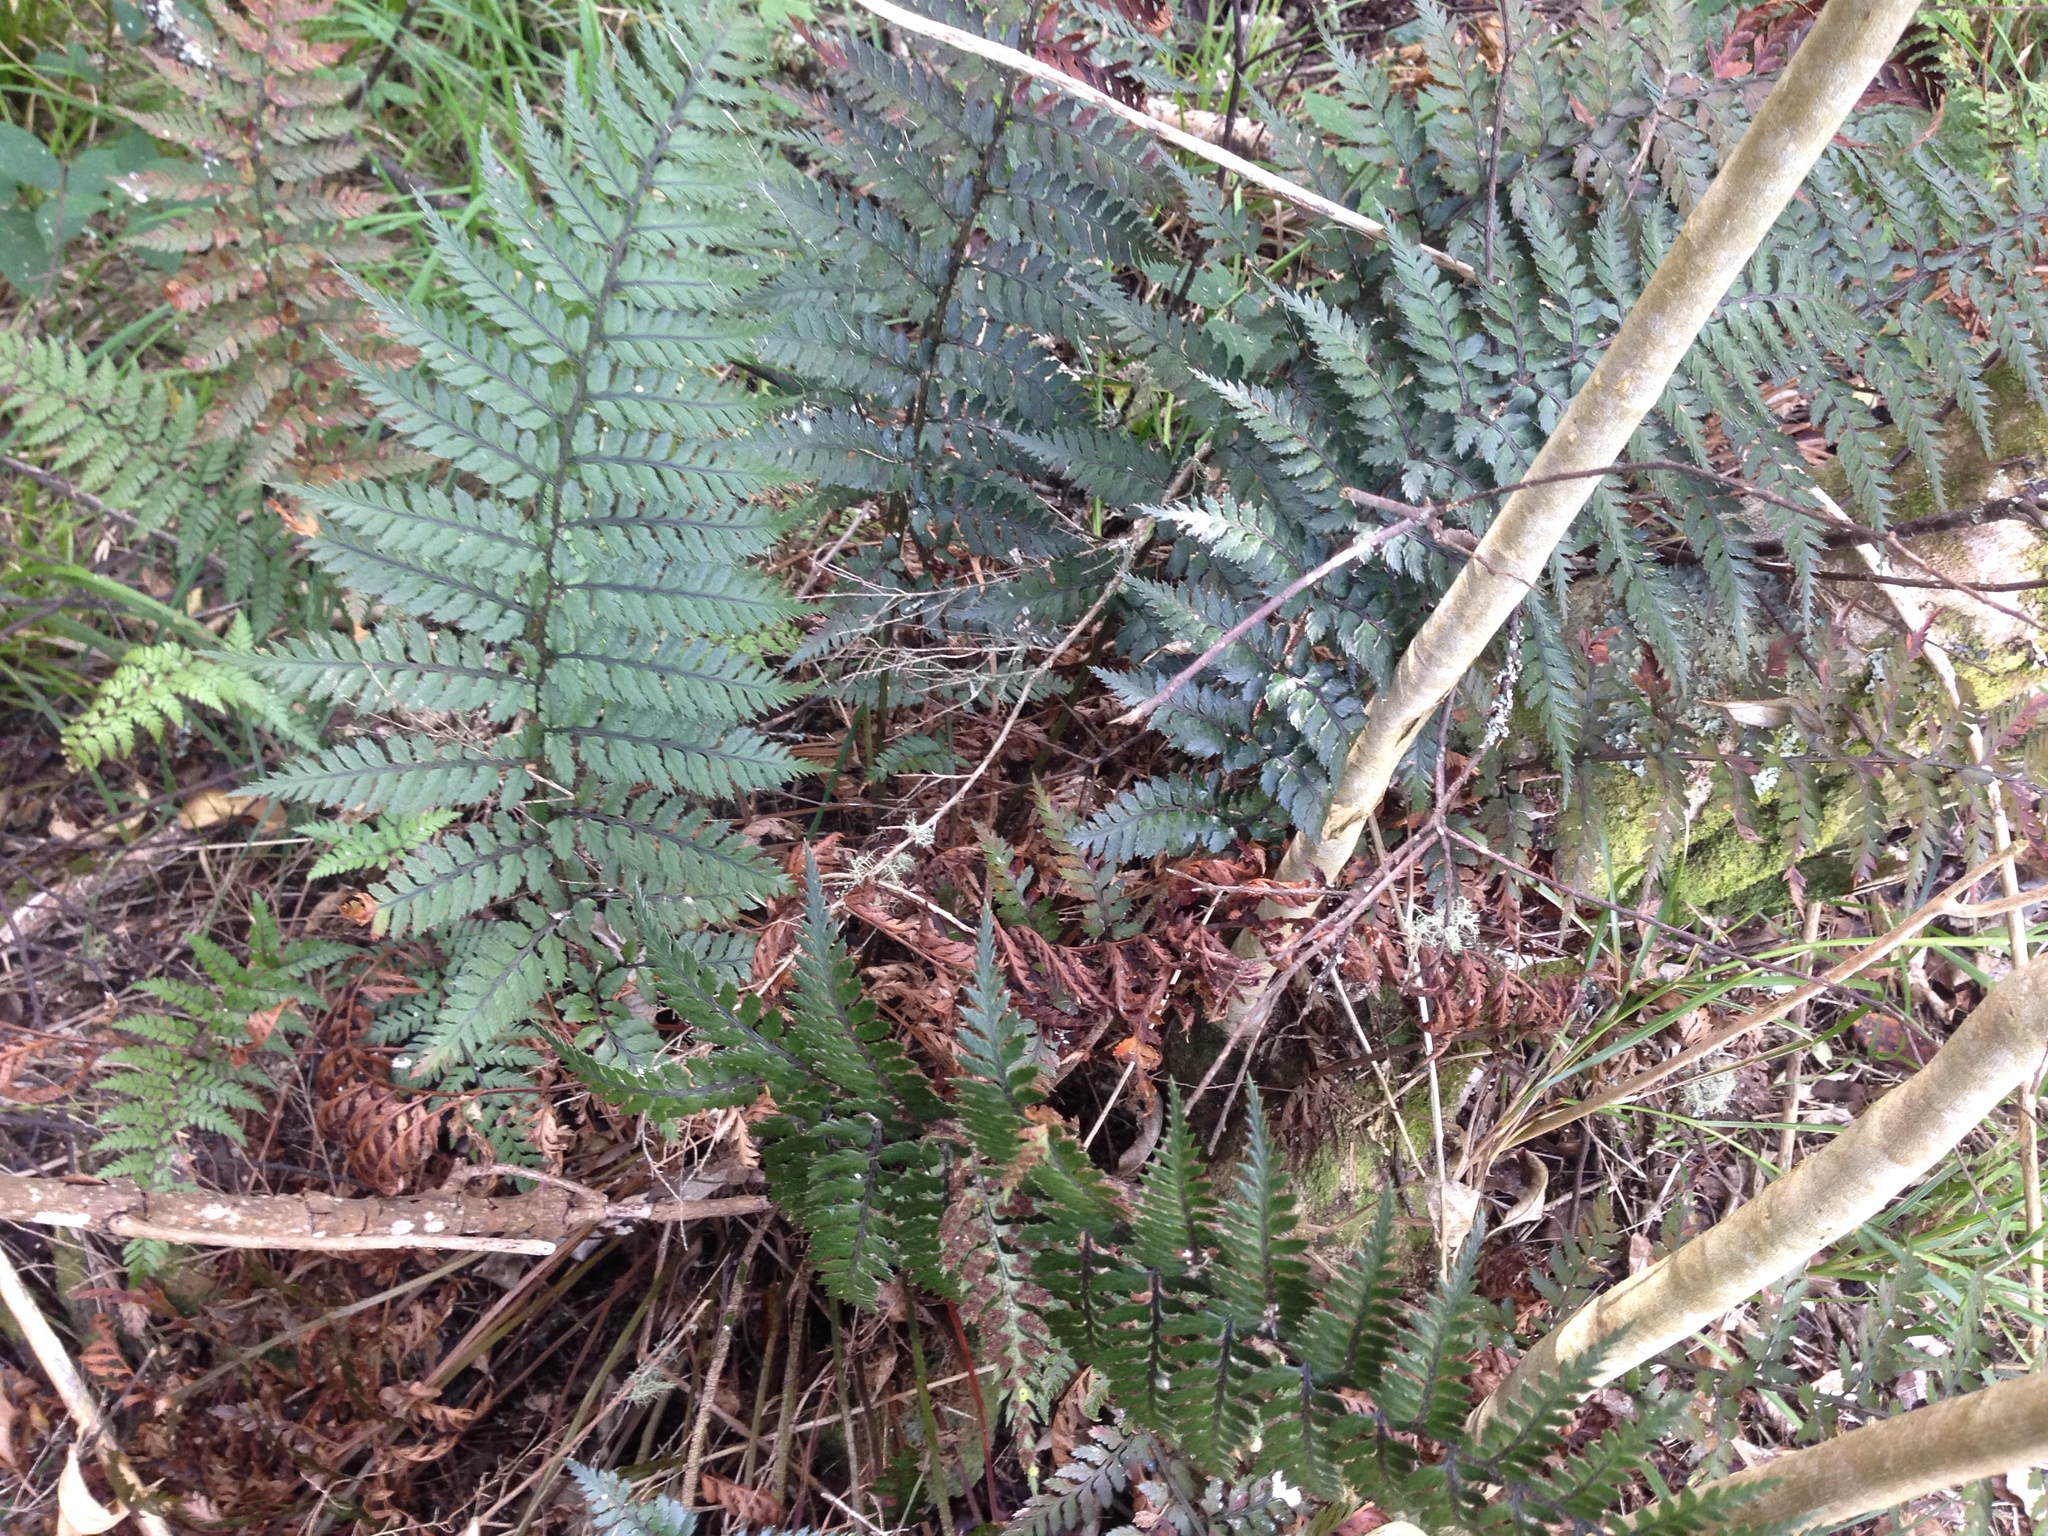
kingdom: Plantae
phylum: Tracheophyta
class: Polypodiopsida
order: Polypodiales
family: Dryopteridaceae
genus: Polystichum
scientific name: Polystichum neozelandicum
